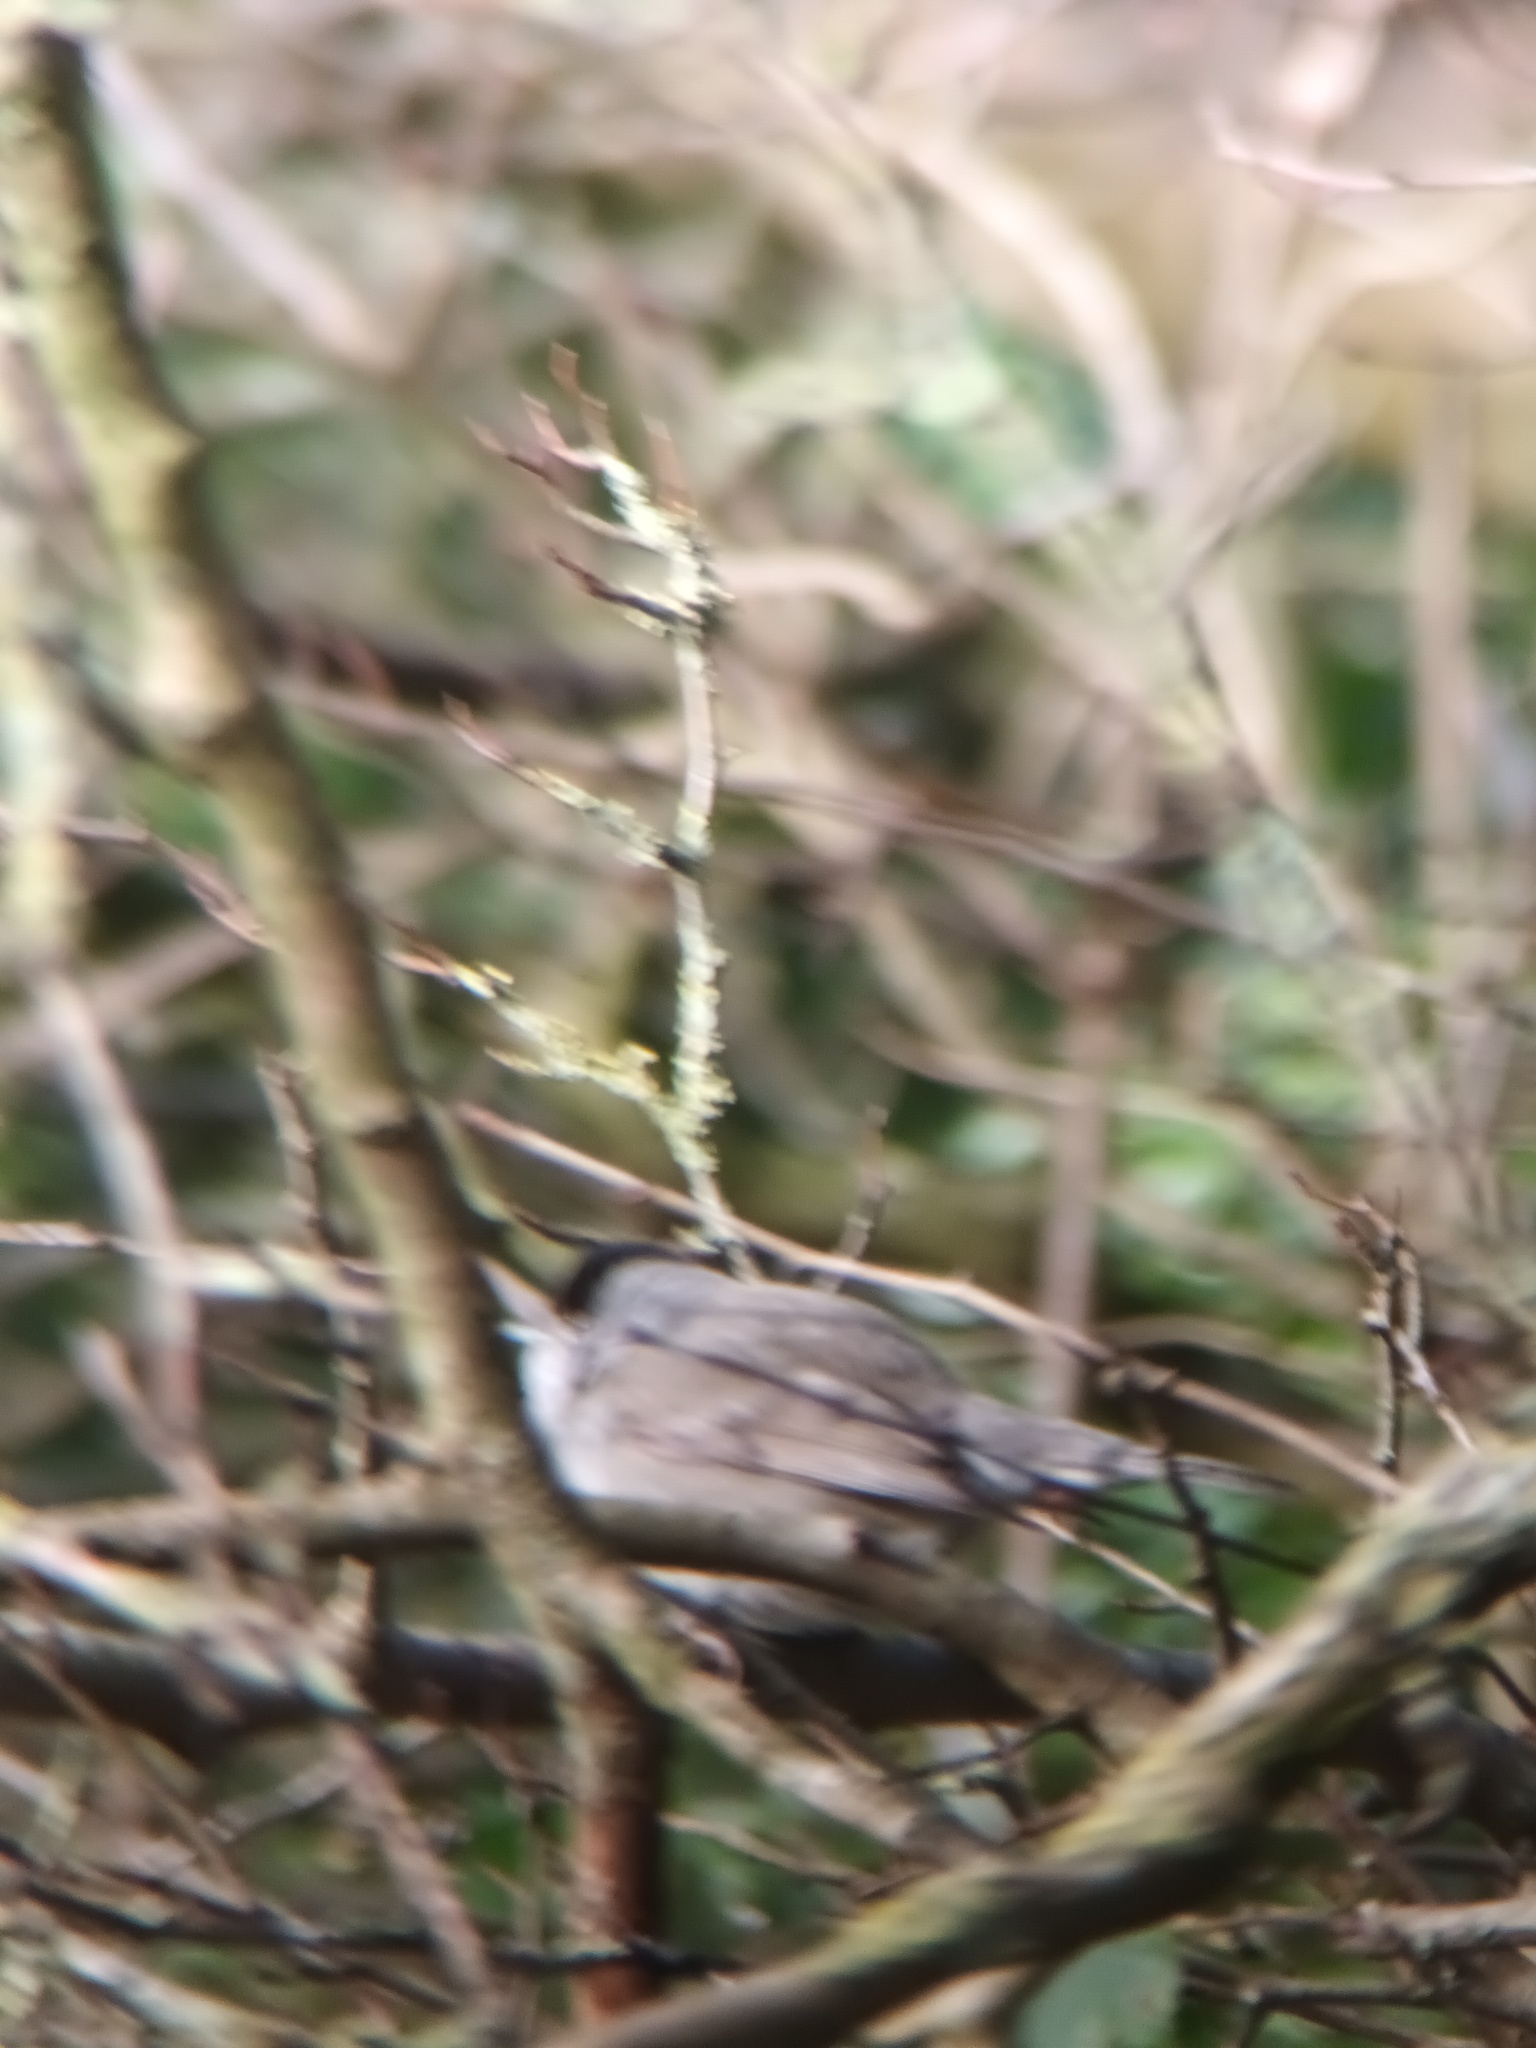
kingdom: Animalia
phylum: Chordata
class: Aves
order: Passeriformes
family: Sylviidae
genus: Sylvia
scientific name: Sylvia atricapilla
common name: Eurasian blackcap
